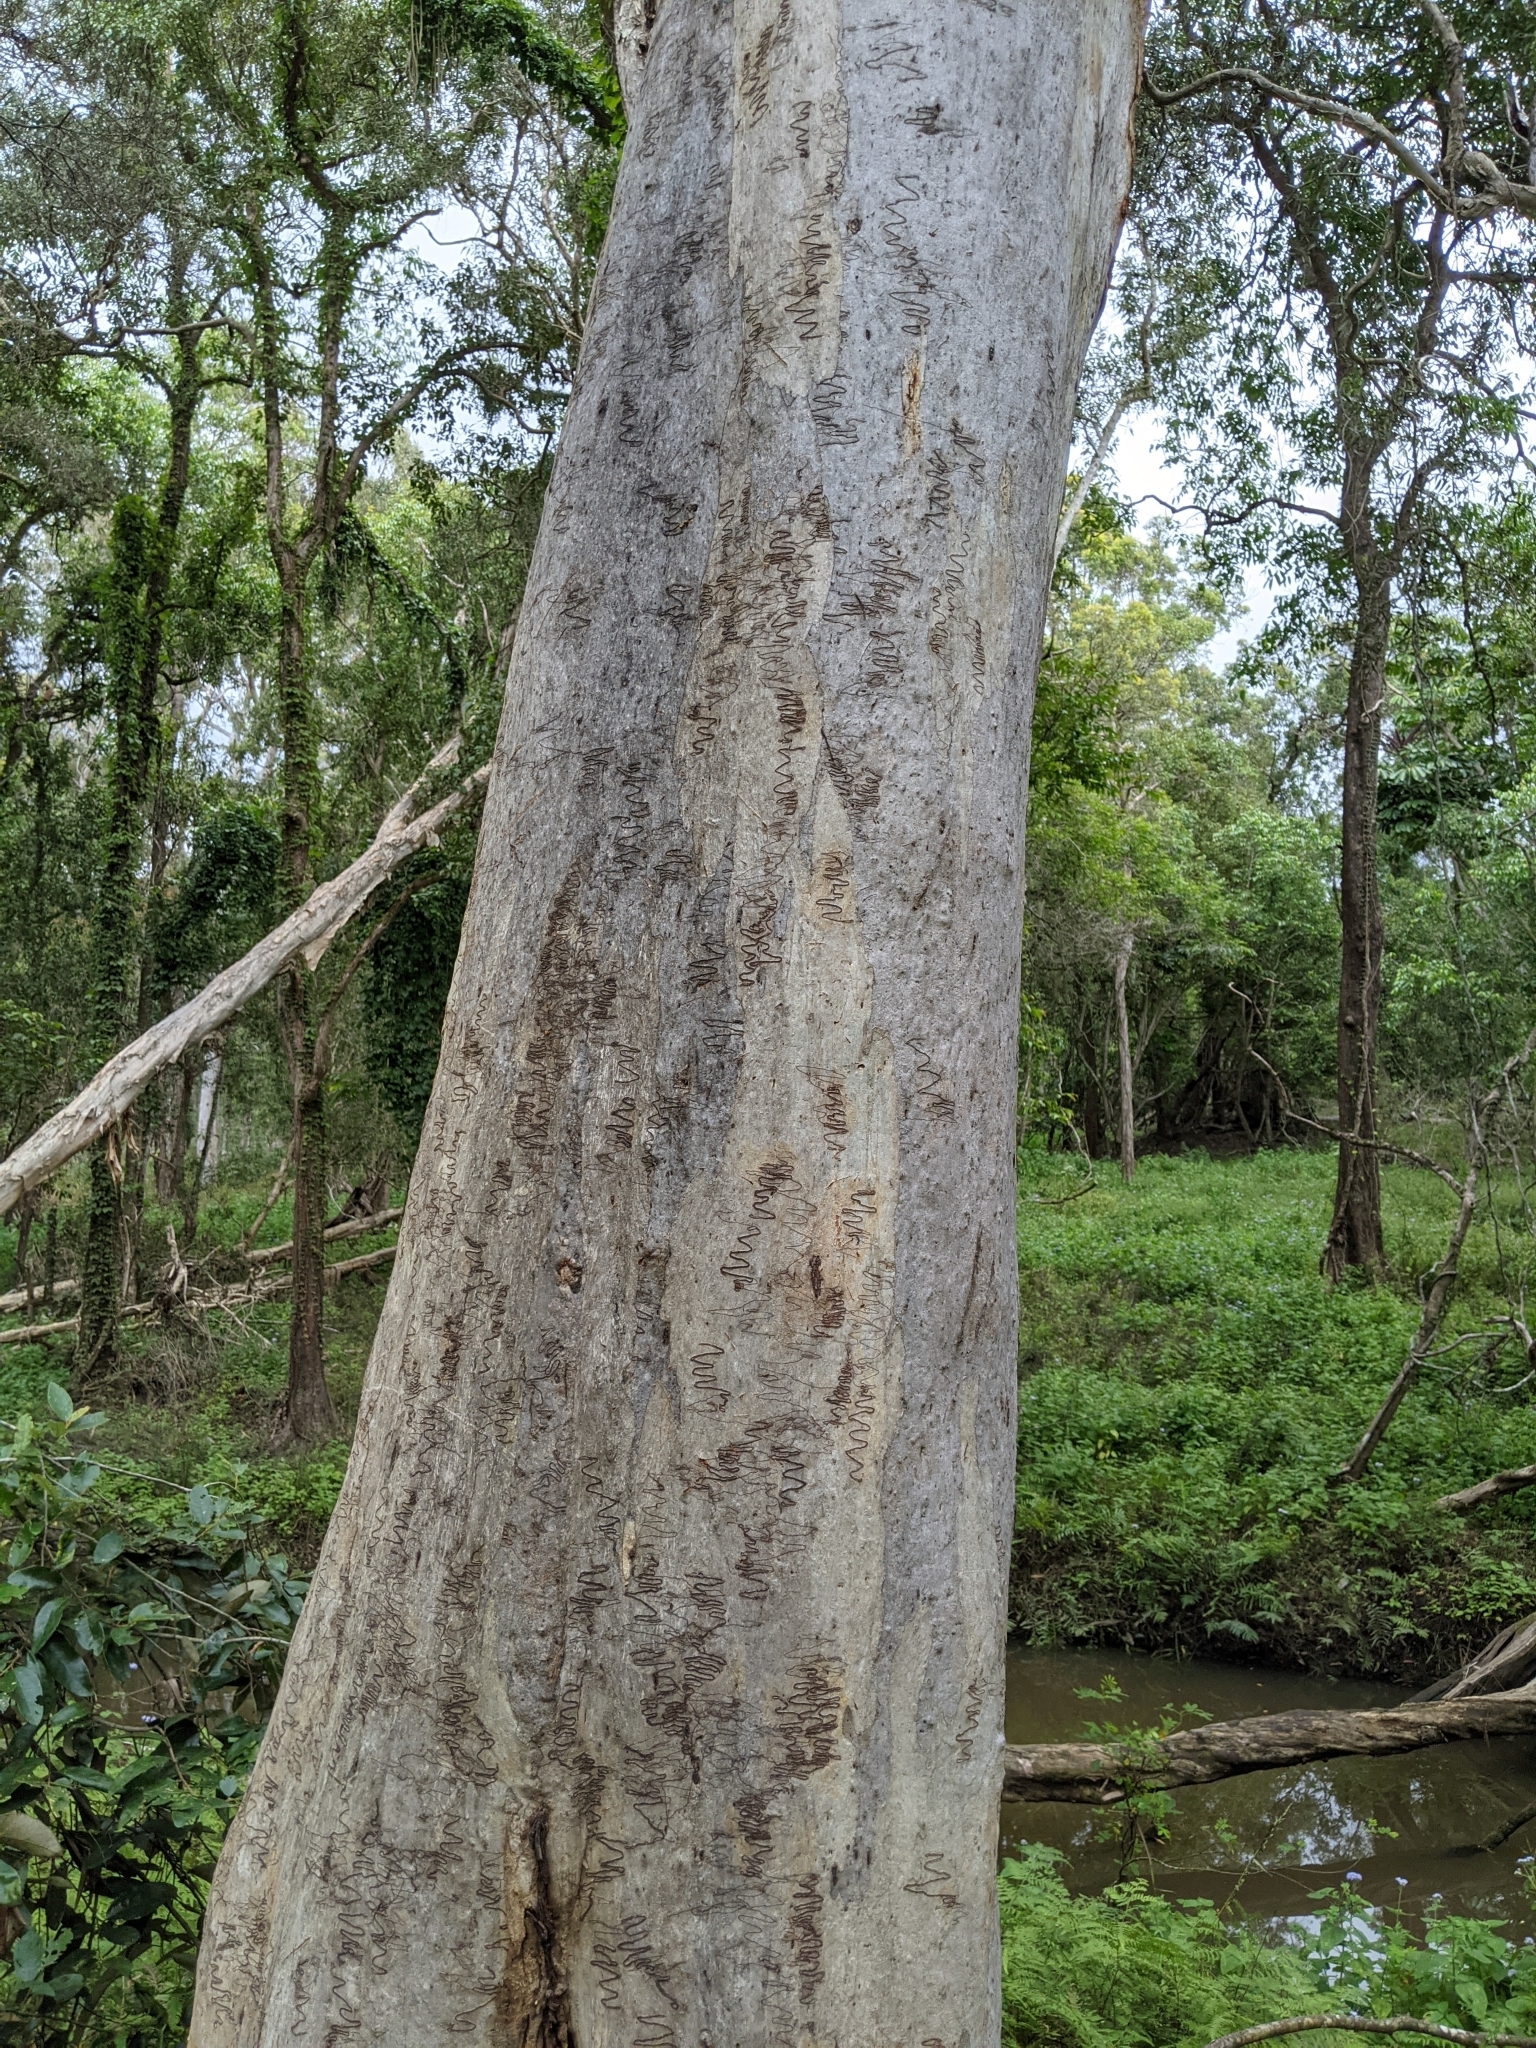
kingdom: Plantae
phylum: Tracheophyta
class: Magnoliopsida
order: Myrtales
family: Myrtaceae
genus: Eucalyptus
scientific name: Eucalyptus racemosa
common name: Scribbly gum
